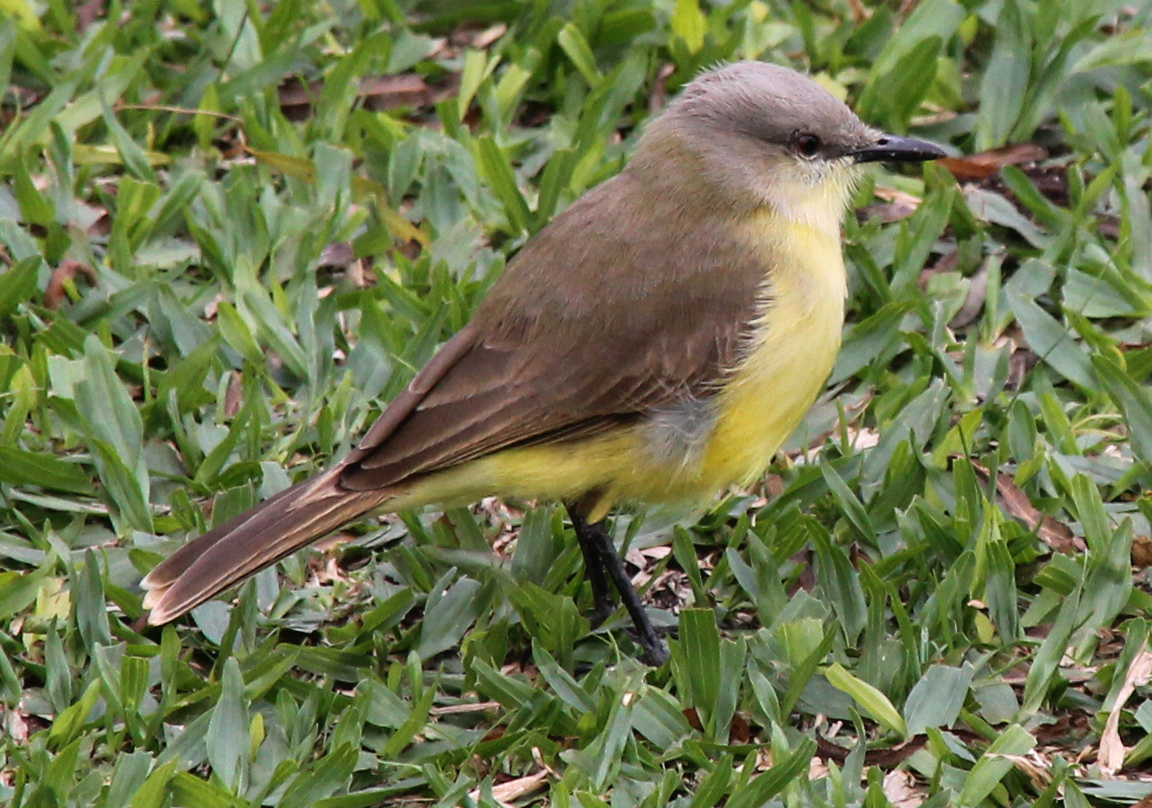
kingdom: Animalia
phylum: Chordata
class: Aves
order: Passeriformes
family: Tyrannidae
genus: Machetornis
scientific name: Machetornis rixosa
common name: Cattle tyrant
